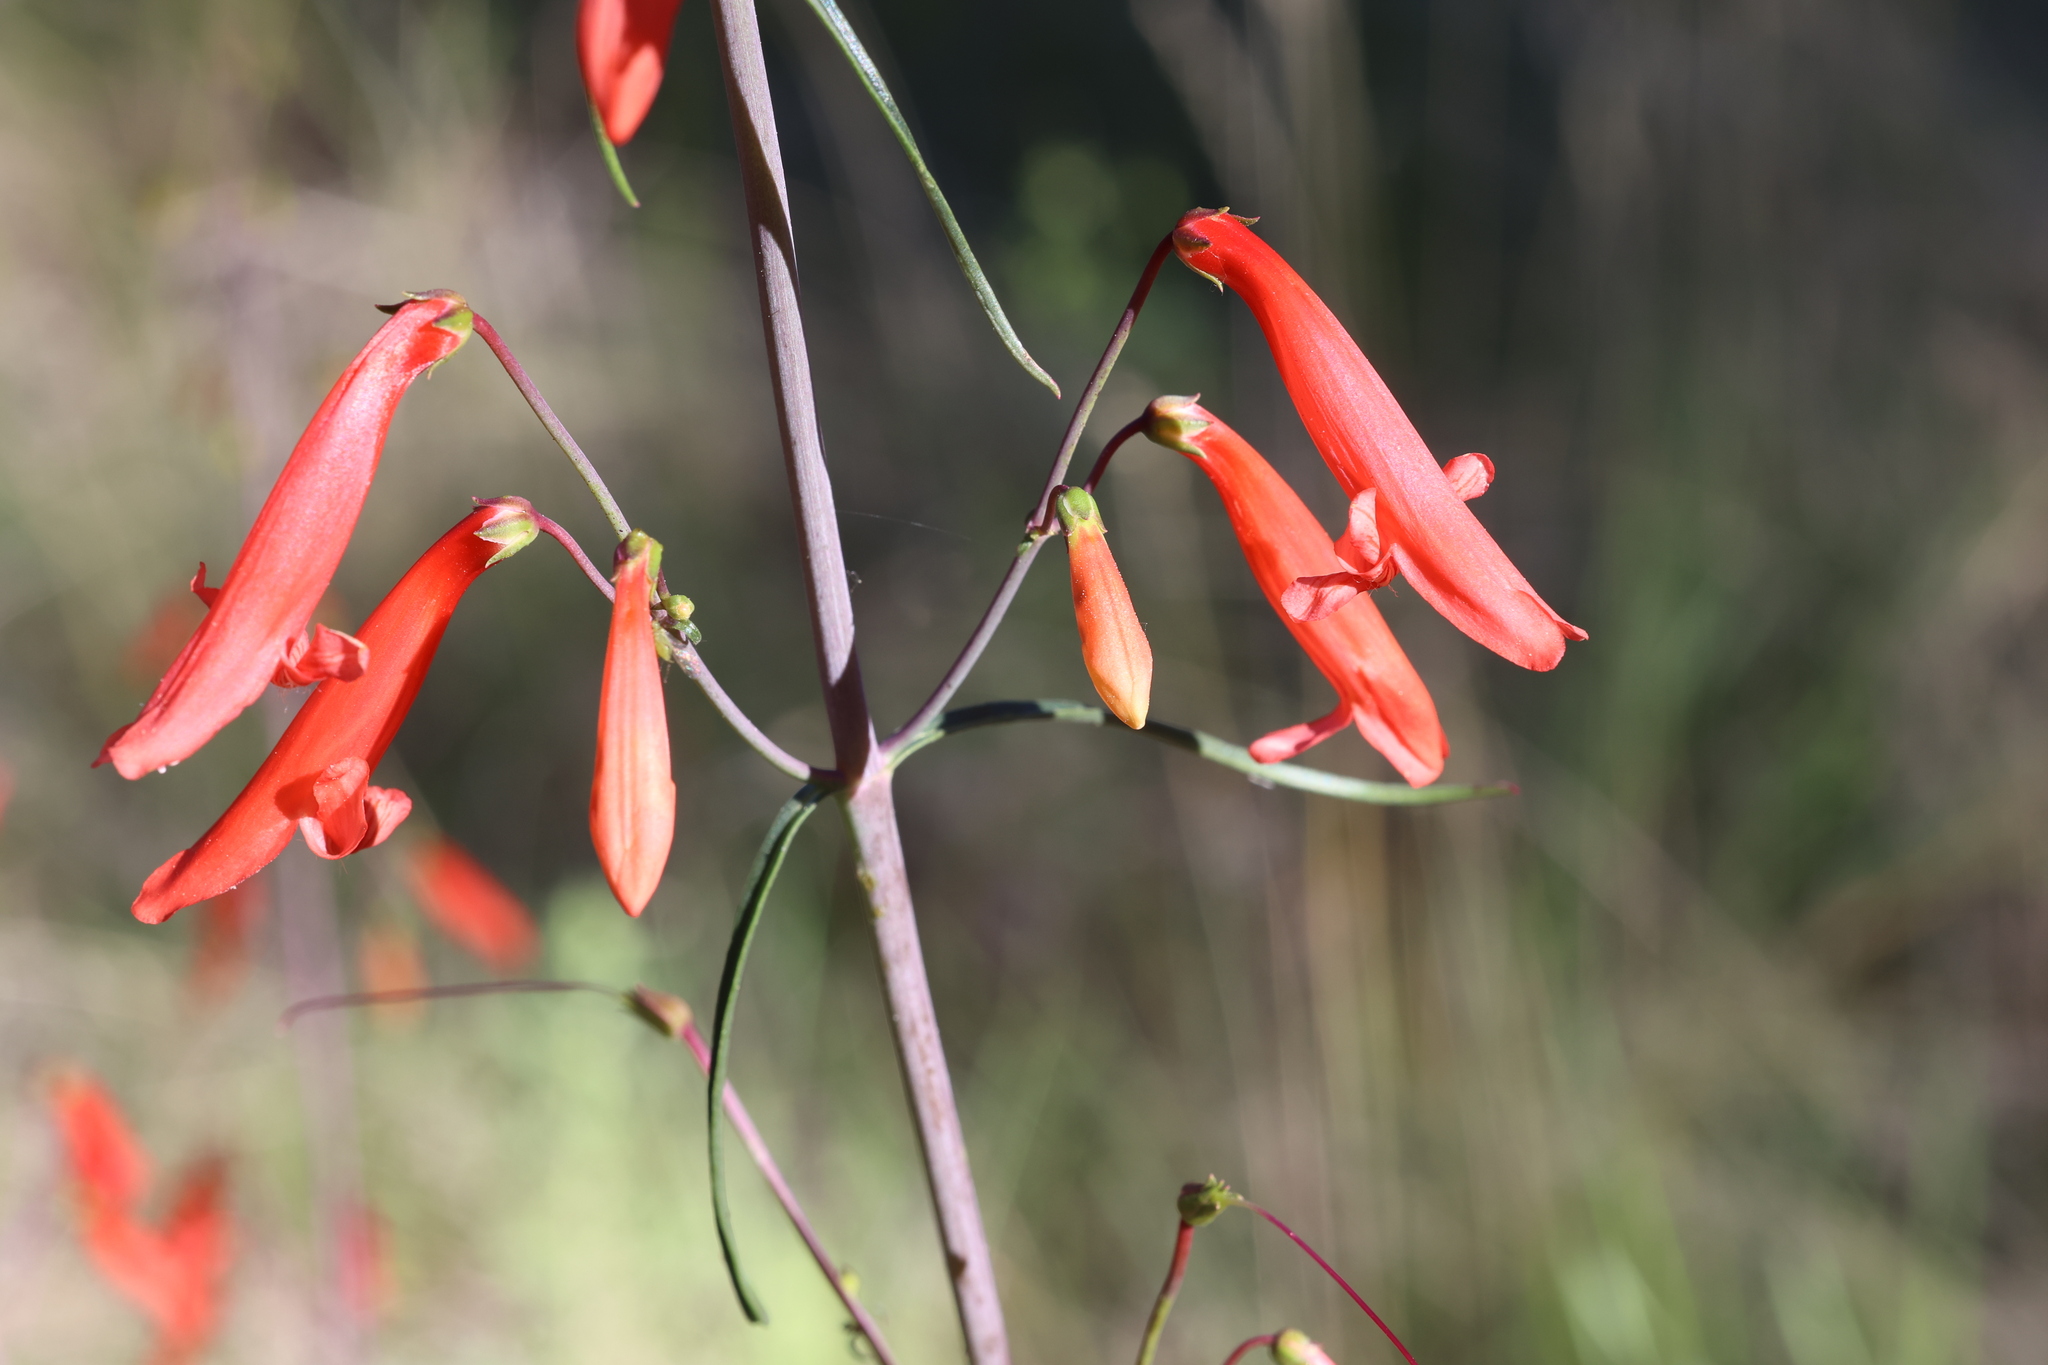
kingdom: Plantae
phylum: Tracheophyta
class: Magnoliopsida
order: Lamiales
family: Plantaginaceae
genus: Penstemon
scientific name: Penstemon barbatus
